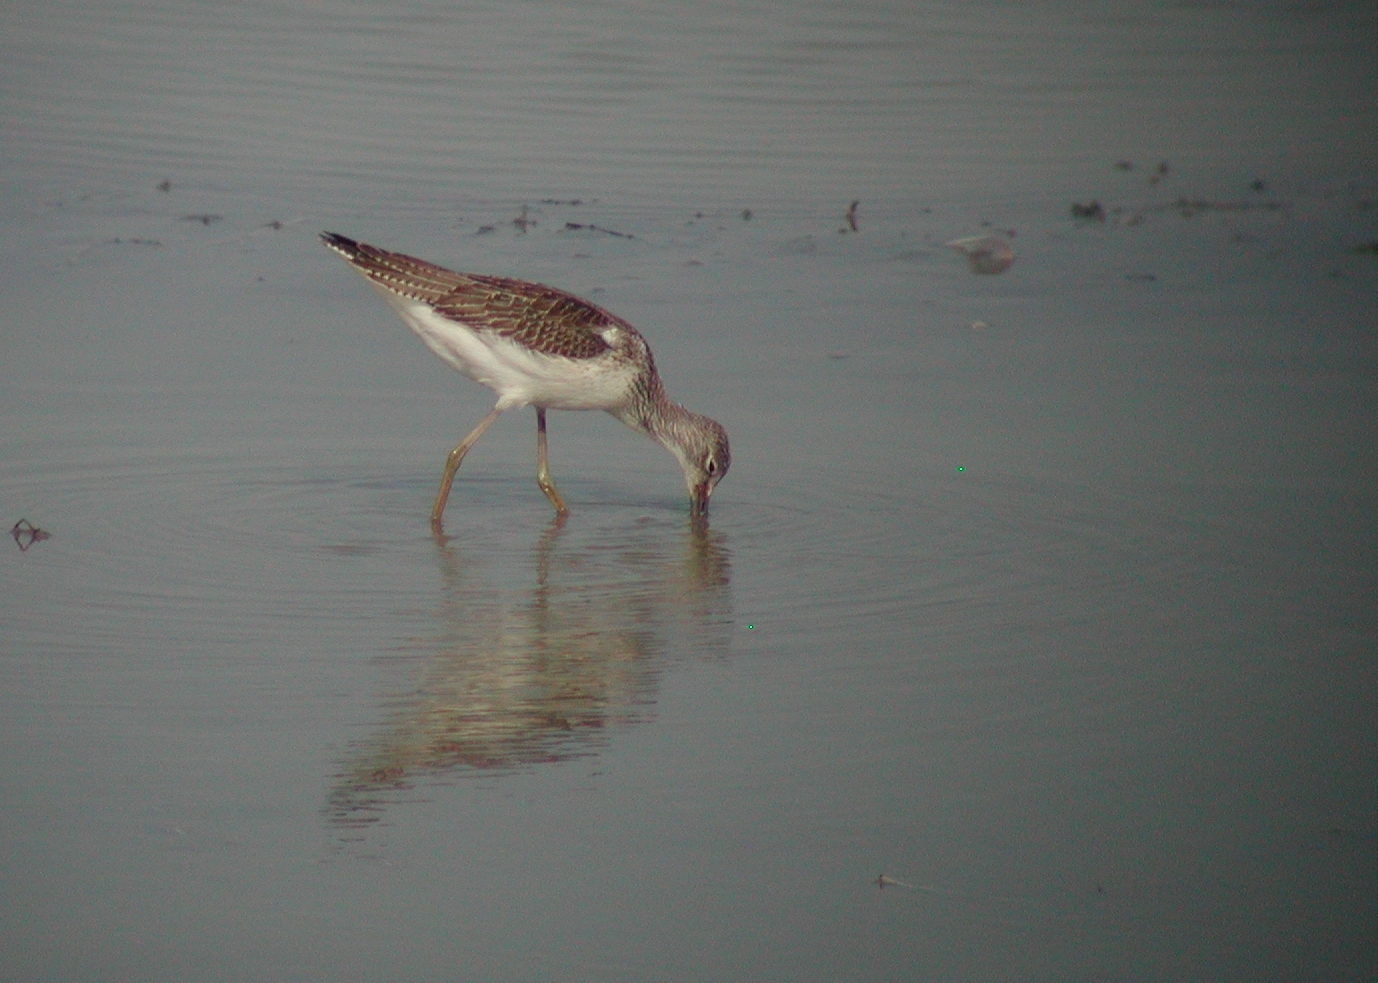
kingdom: Animalia
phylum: Chordata
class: Aves
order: Charadriiformes
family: Scolopacidae
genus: Tringa
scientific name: Tringa nebularia
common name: Common greenshank
